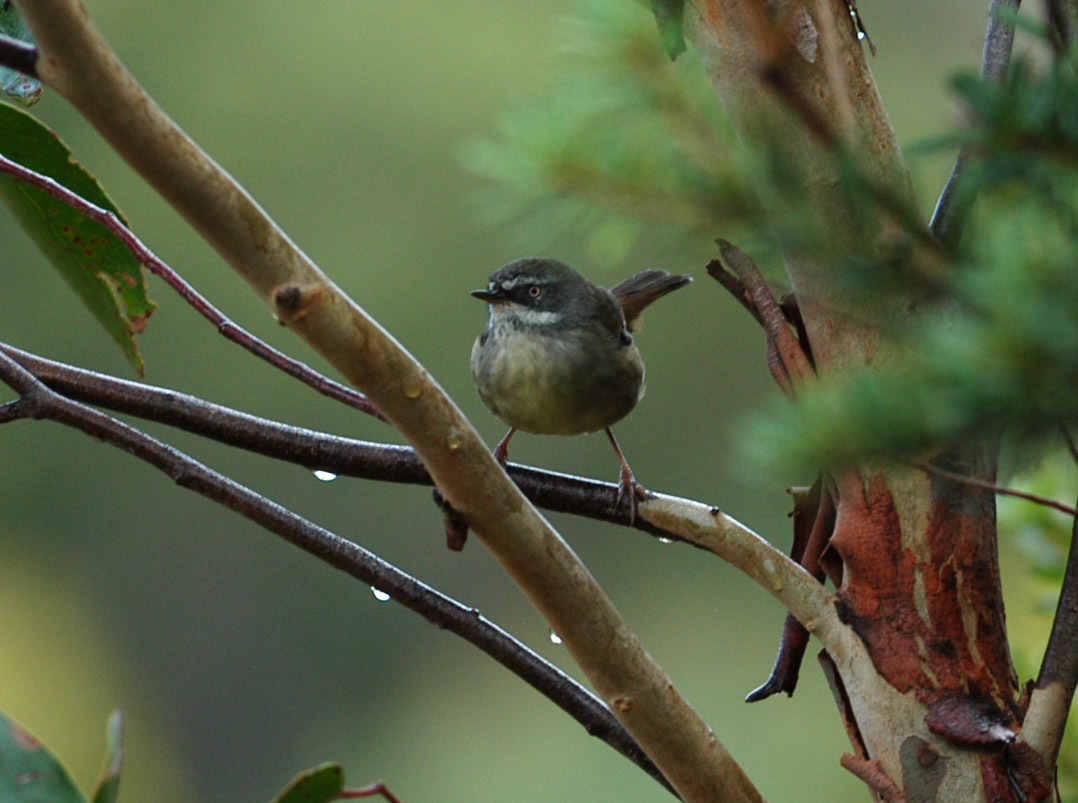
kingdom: Animalia
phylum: Chordata
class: Aves
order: Passeriformes
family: Acanthizidae
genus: Sericornis
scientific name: Sericornis frontalis
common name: White-browed scrubwren
